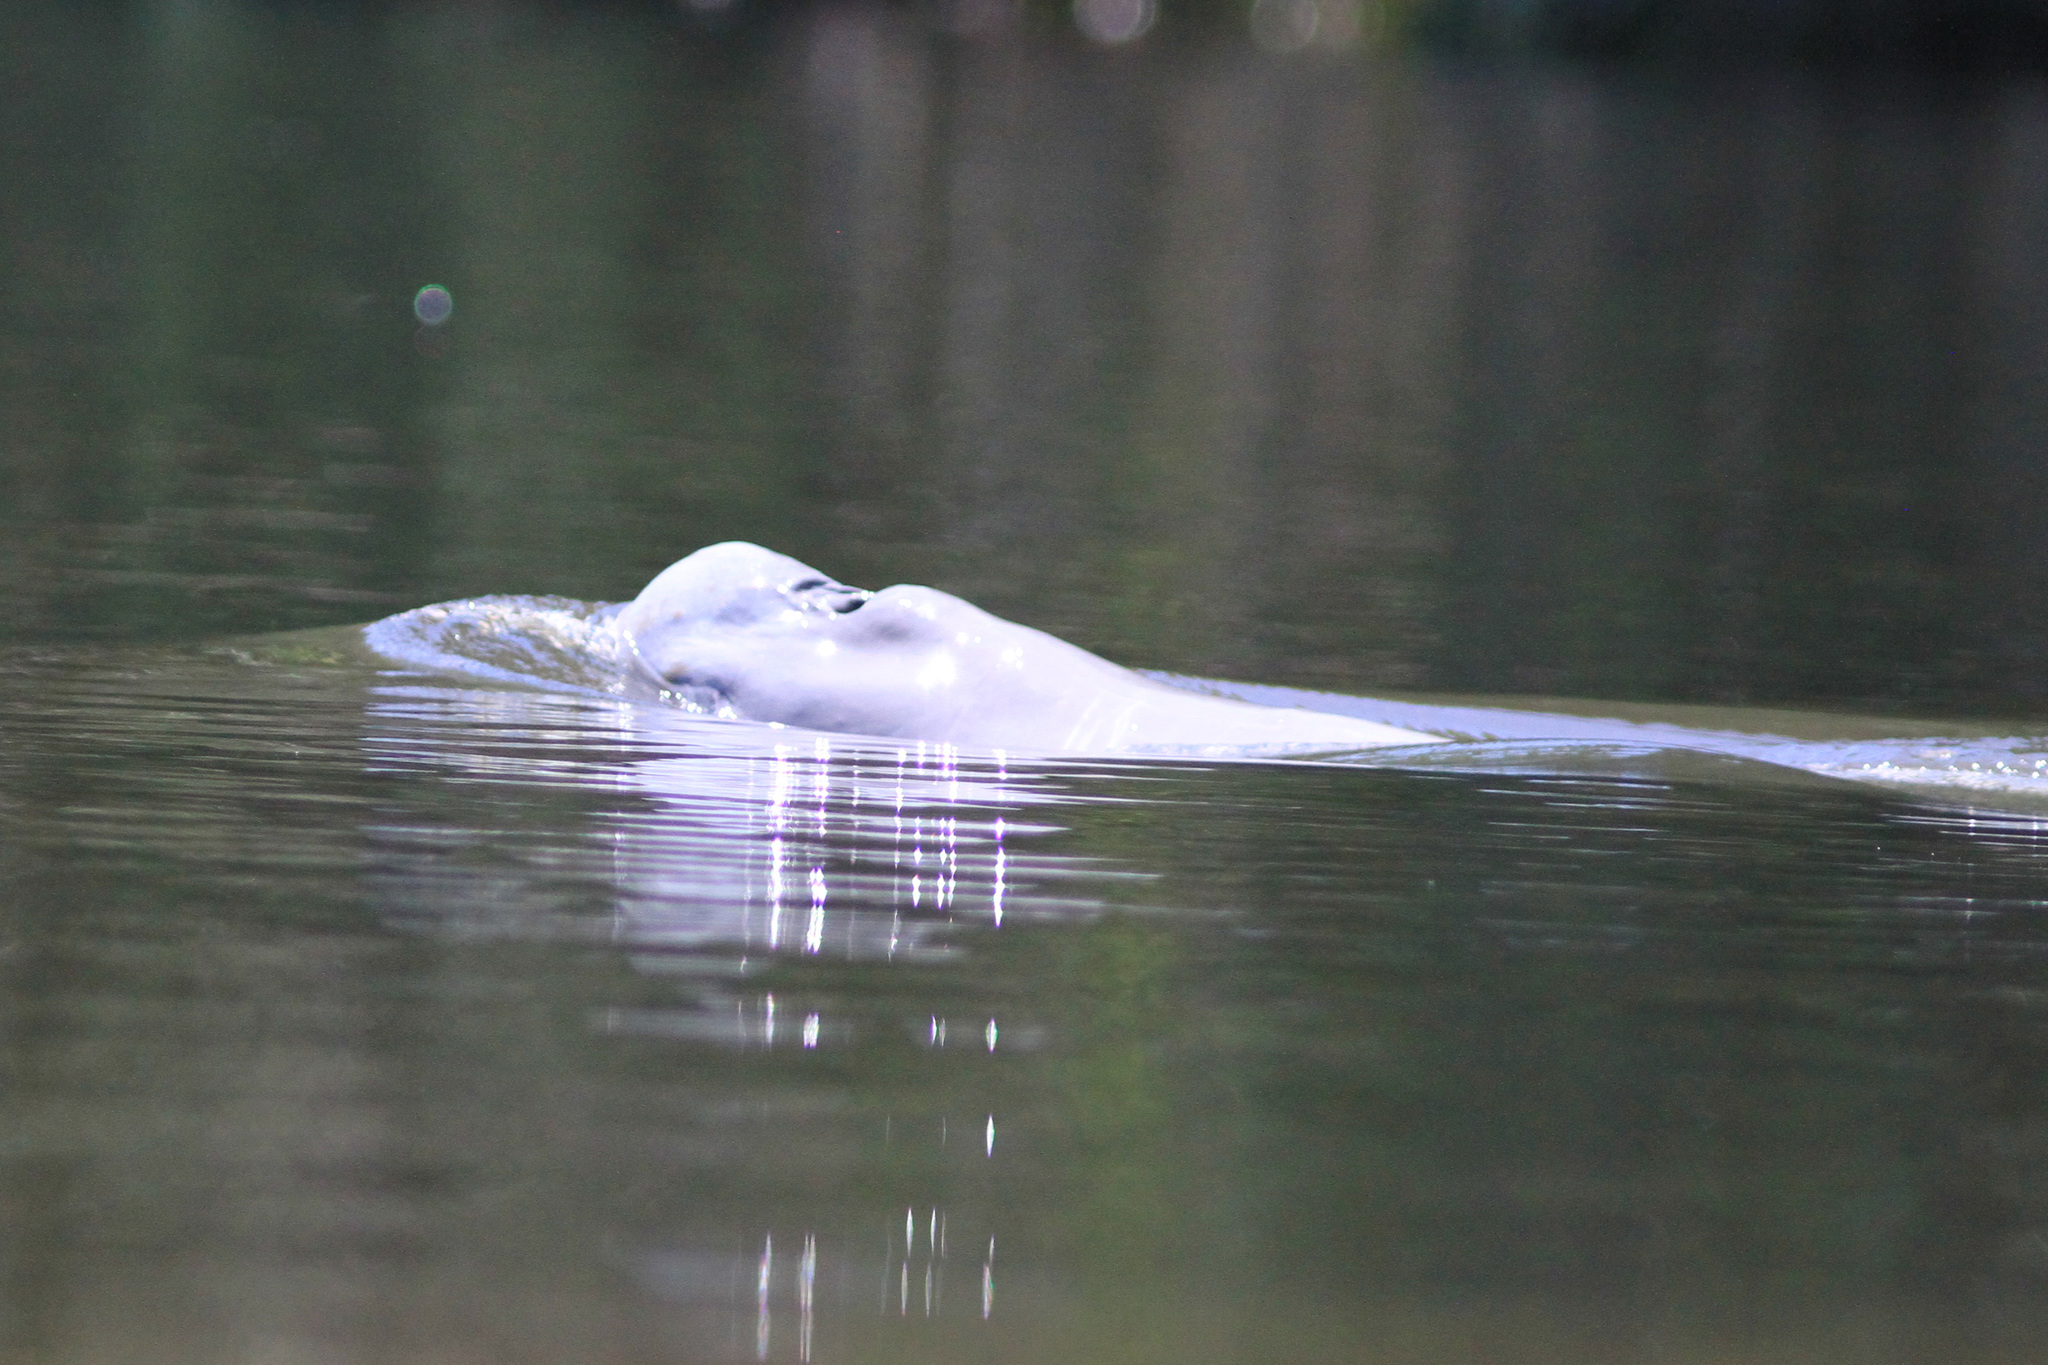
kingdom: Animalia
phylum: Chordata
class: Mammalia
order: Cetacea
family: Iniidae
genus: Inia
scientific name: Inia geoffrensis
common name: Amazon river dolphin
